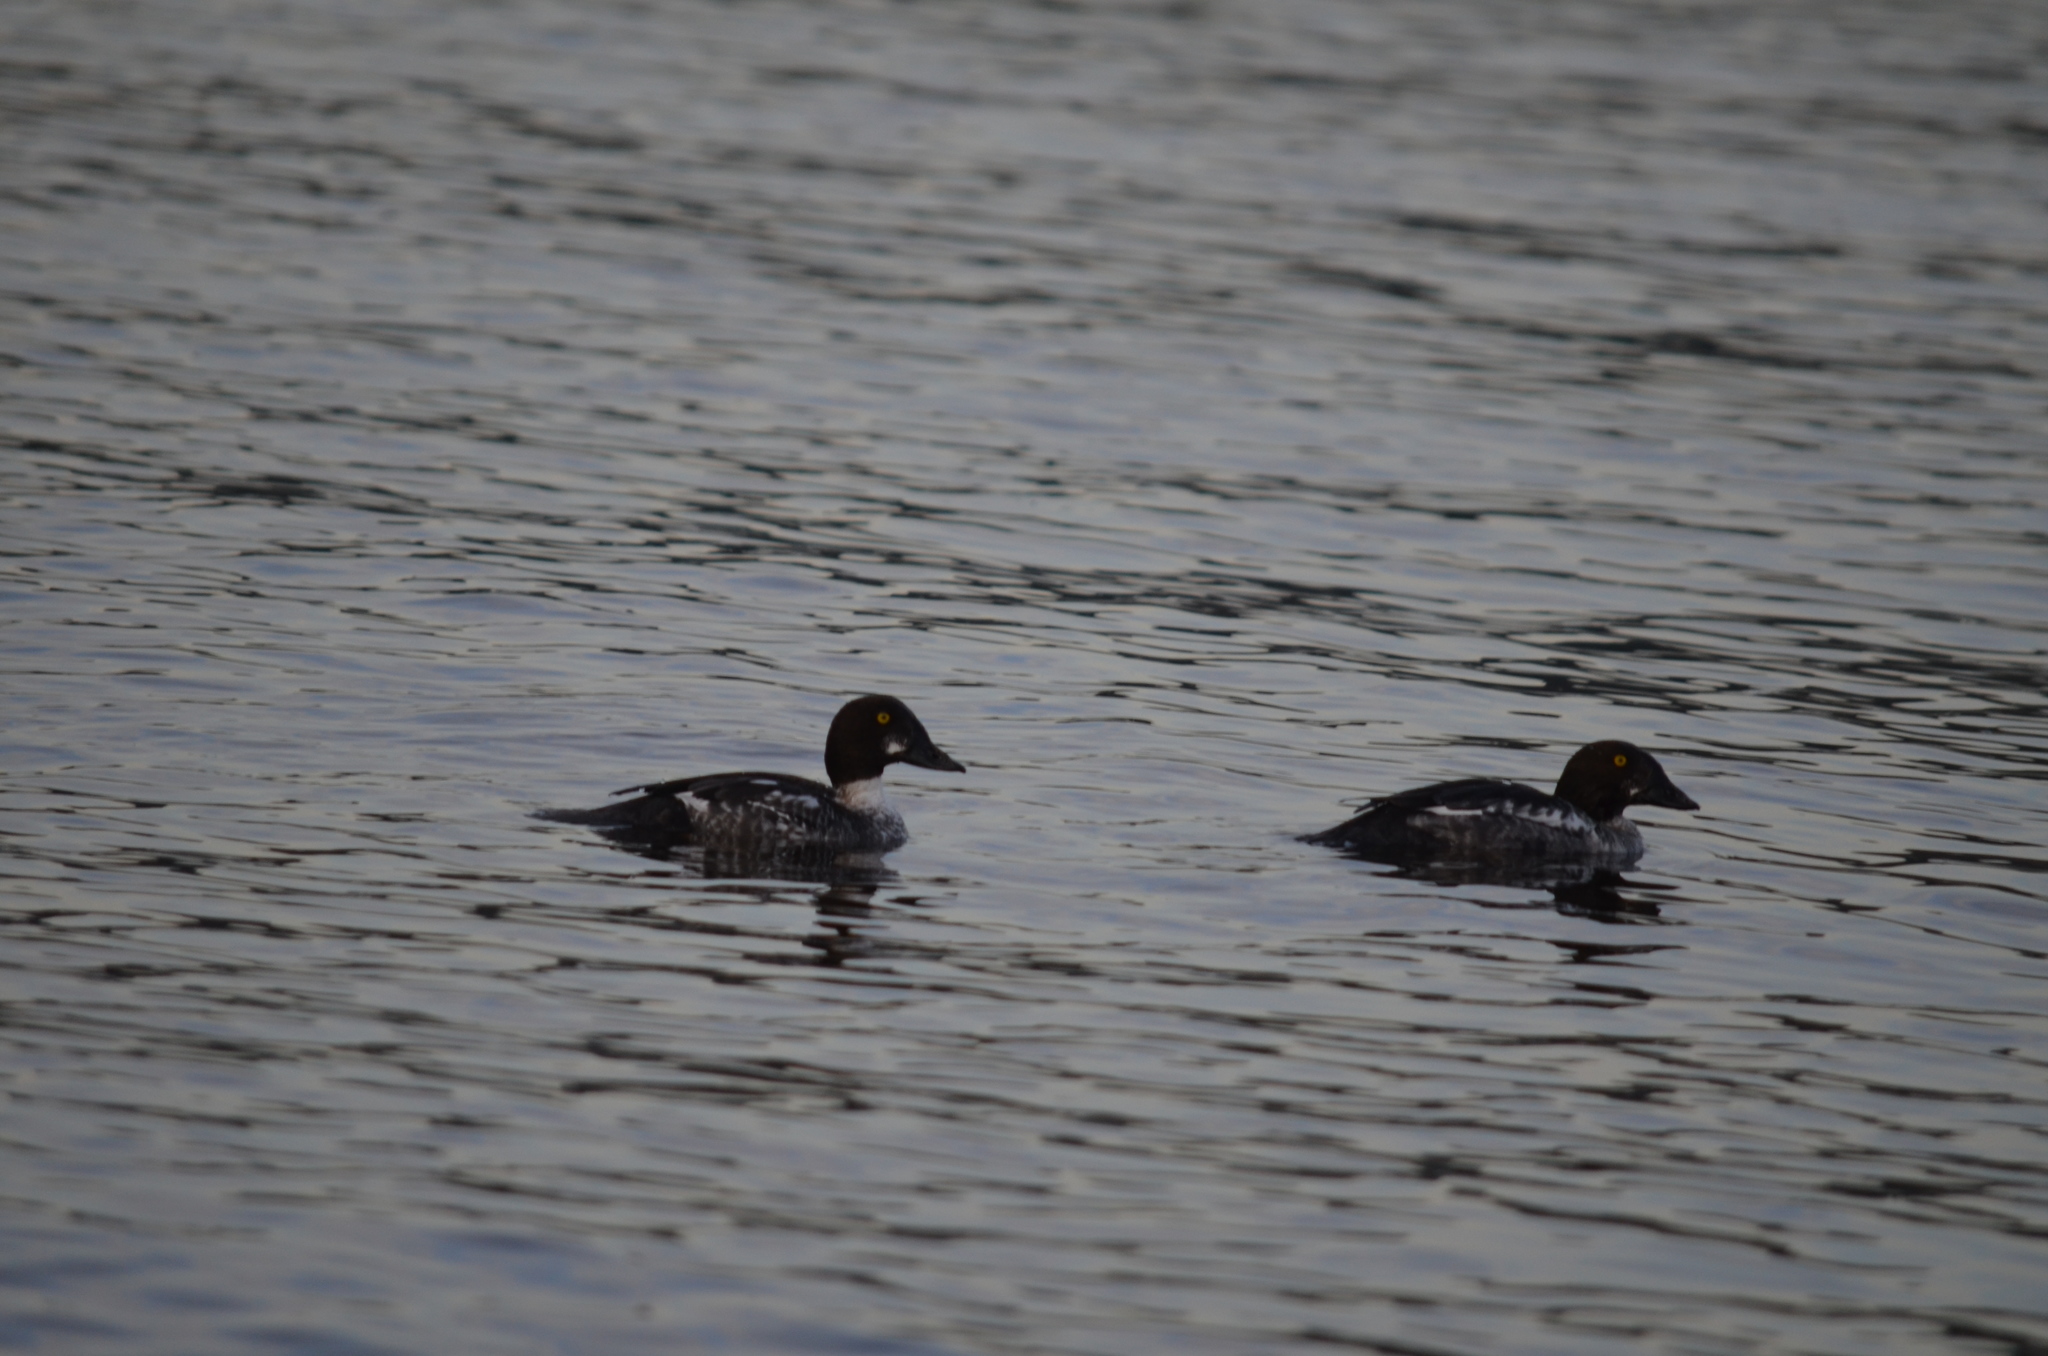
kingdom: Animalia
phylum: Chordata
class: Aves
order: Anseriformes
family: Anatidae
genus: Bucephala
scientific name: Bucephala clangula
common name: Common goldeneye
